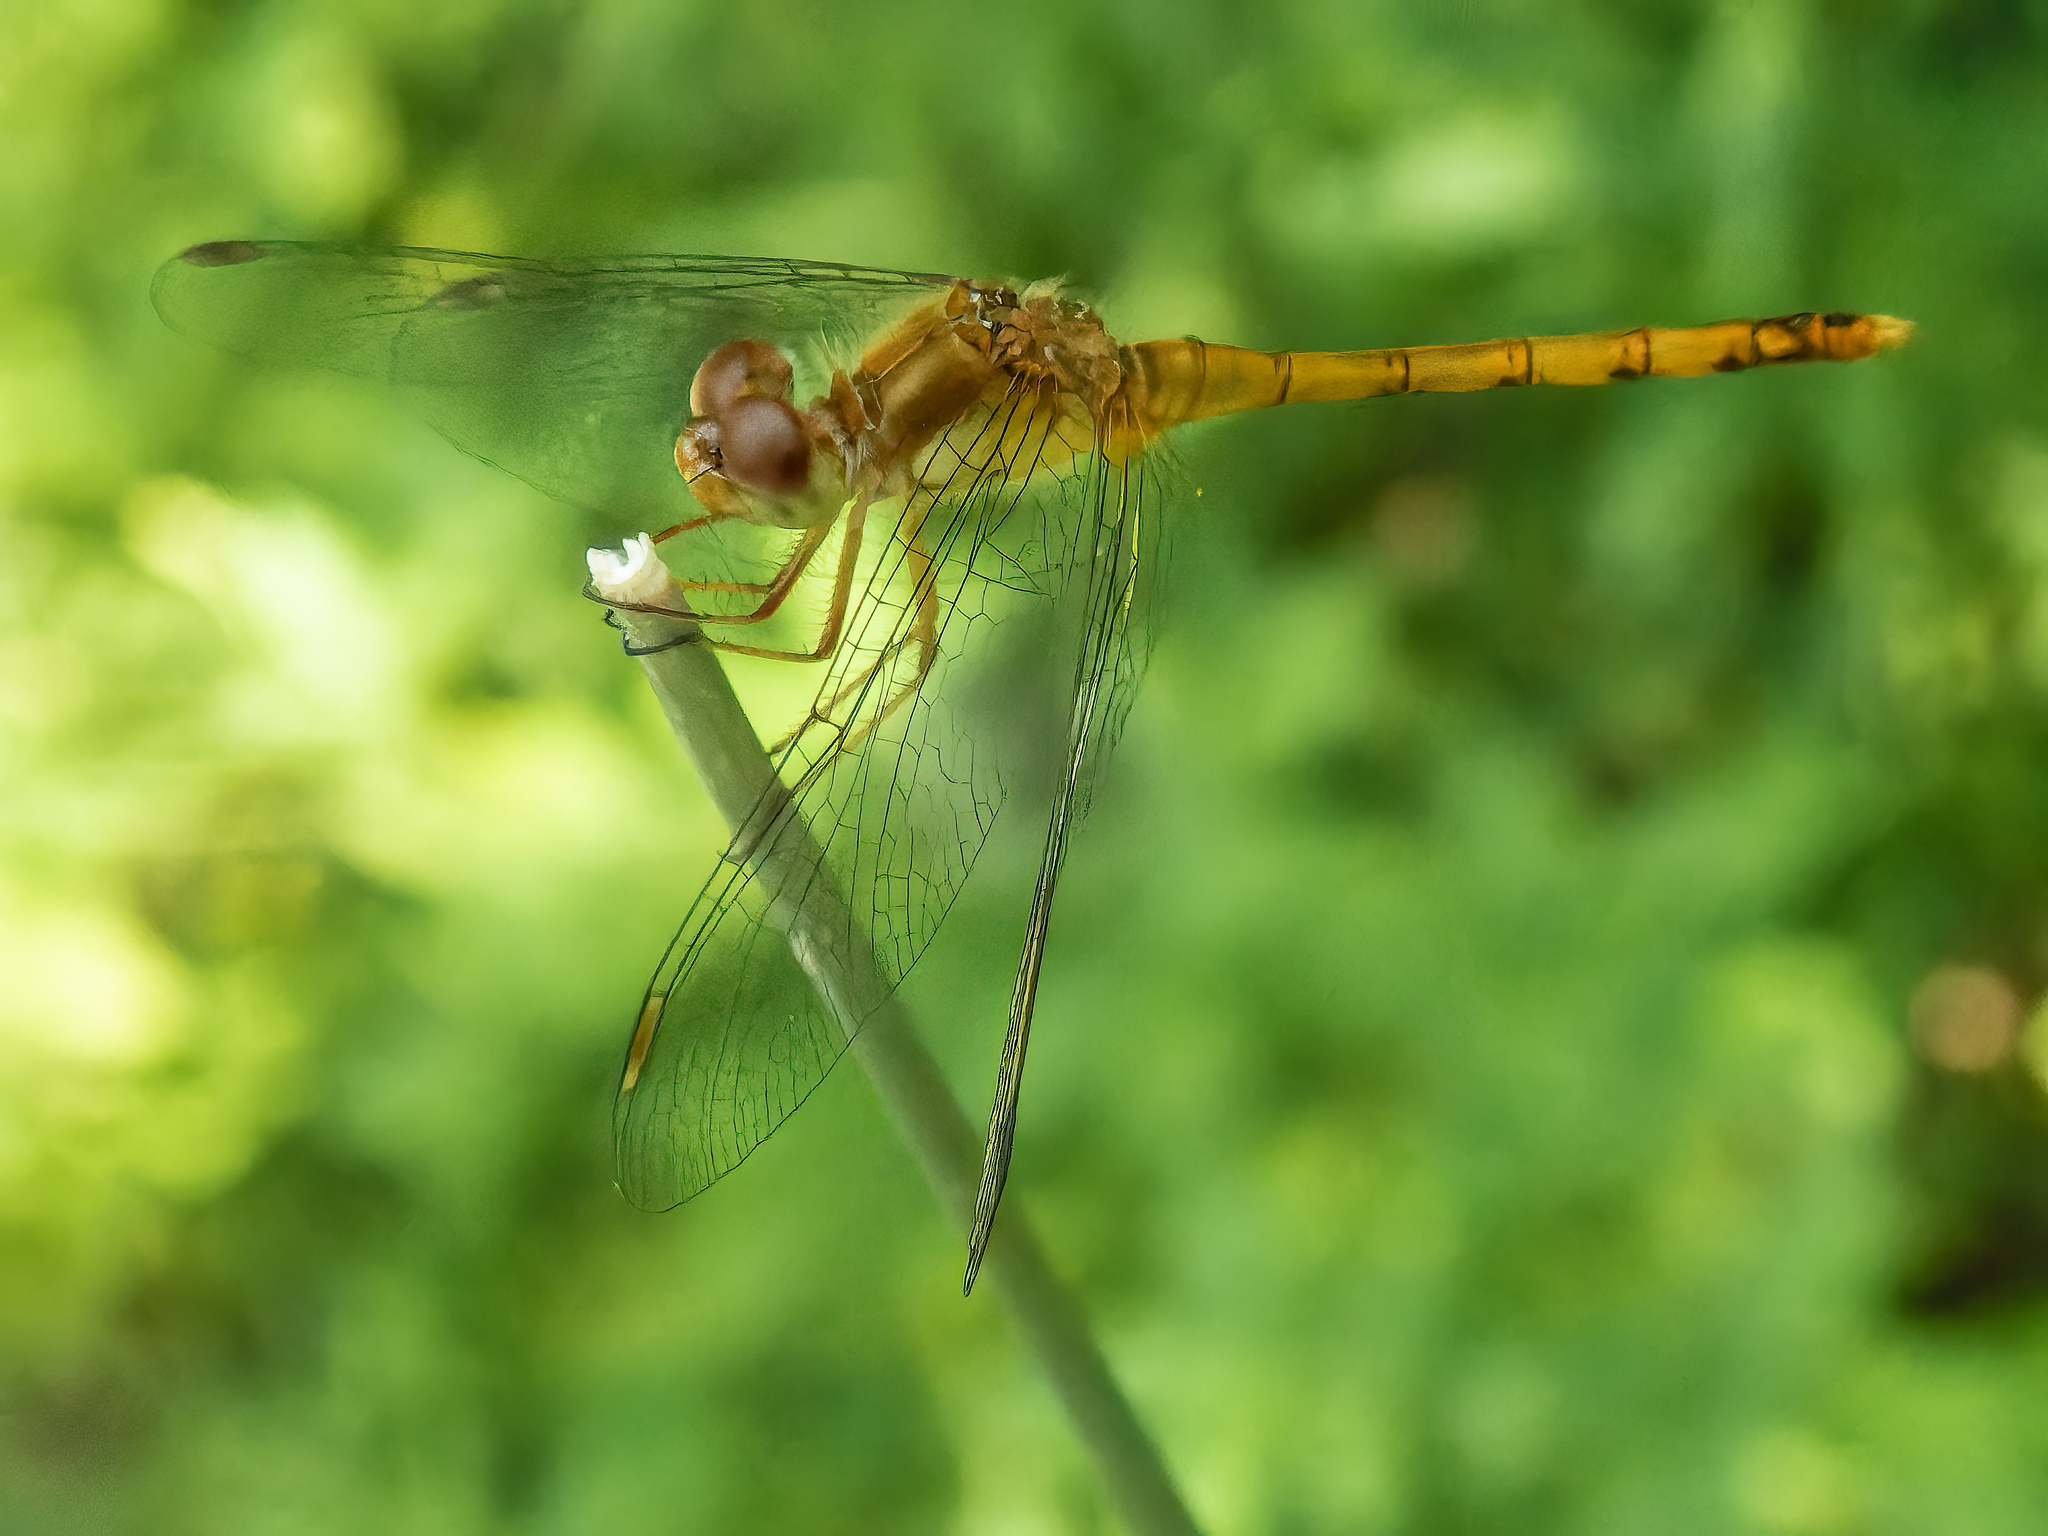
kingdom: Animalia
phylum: Arthropoda
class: Insecta
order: Odonata
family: Libellulidae
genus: Sympetrum
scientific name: Sympetrum vicinum
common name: Autumn meadowhawk
